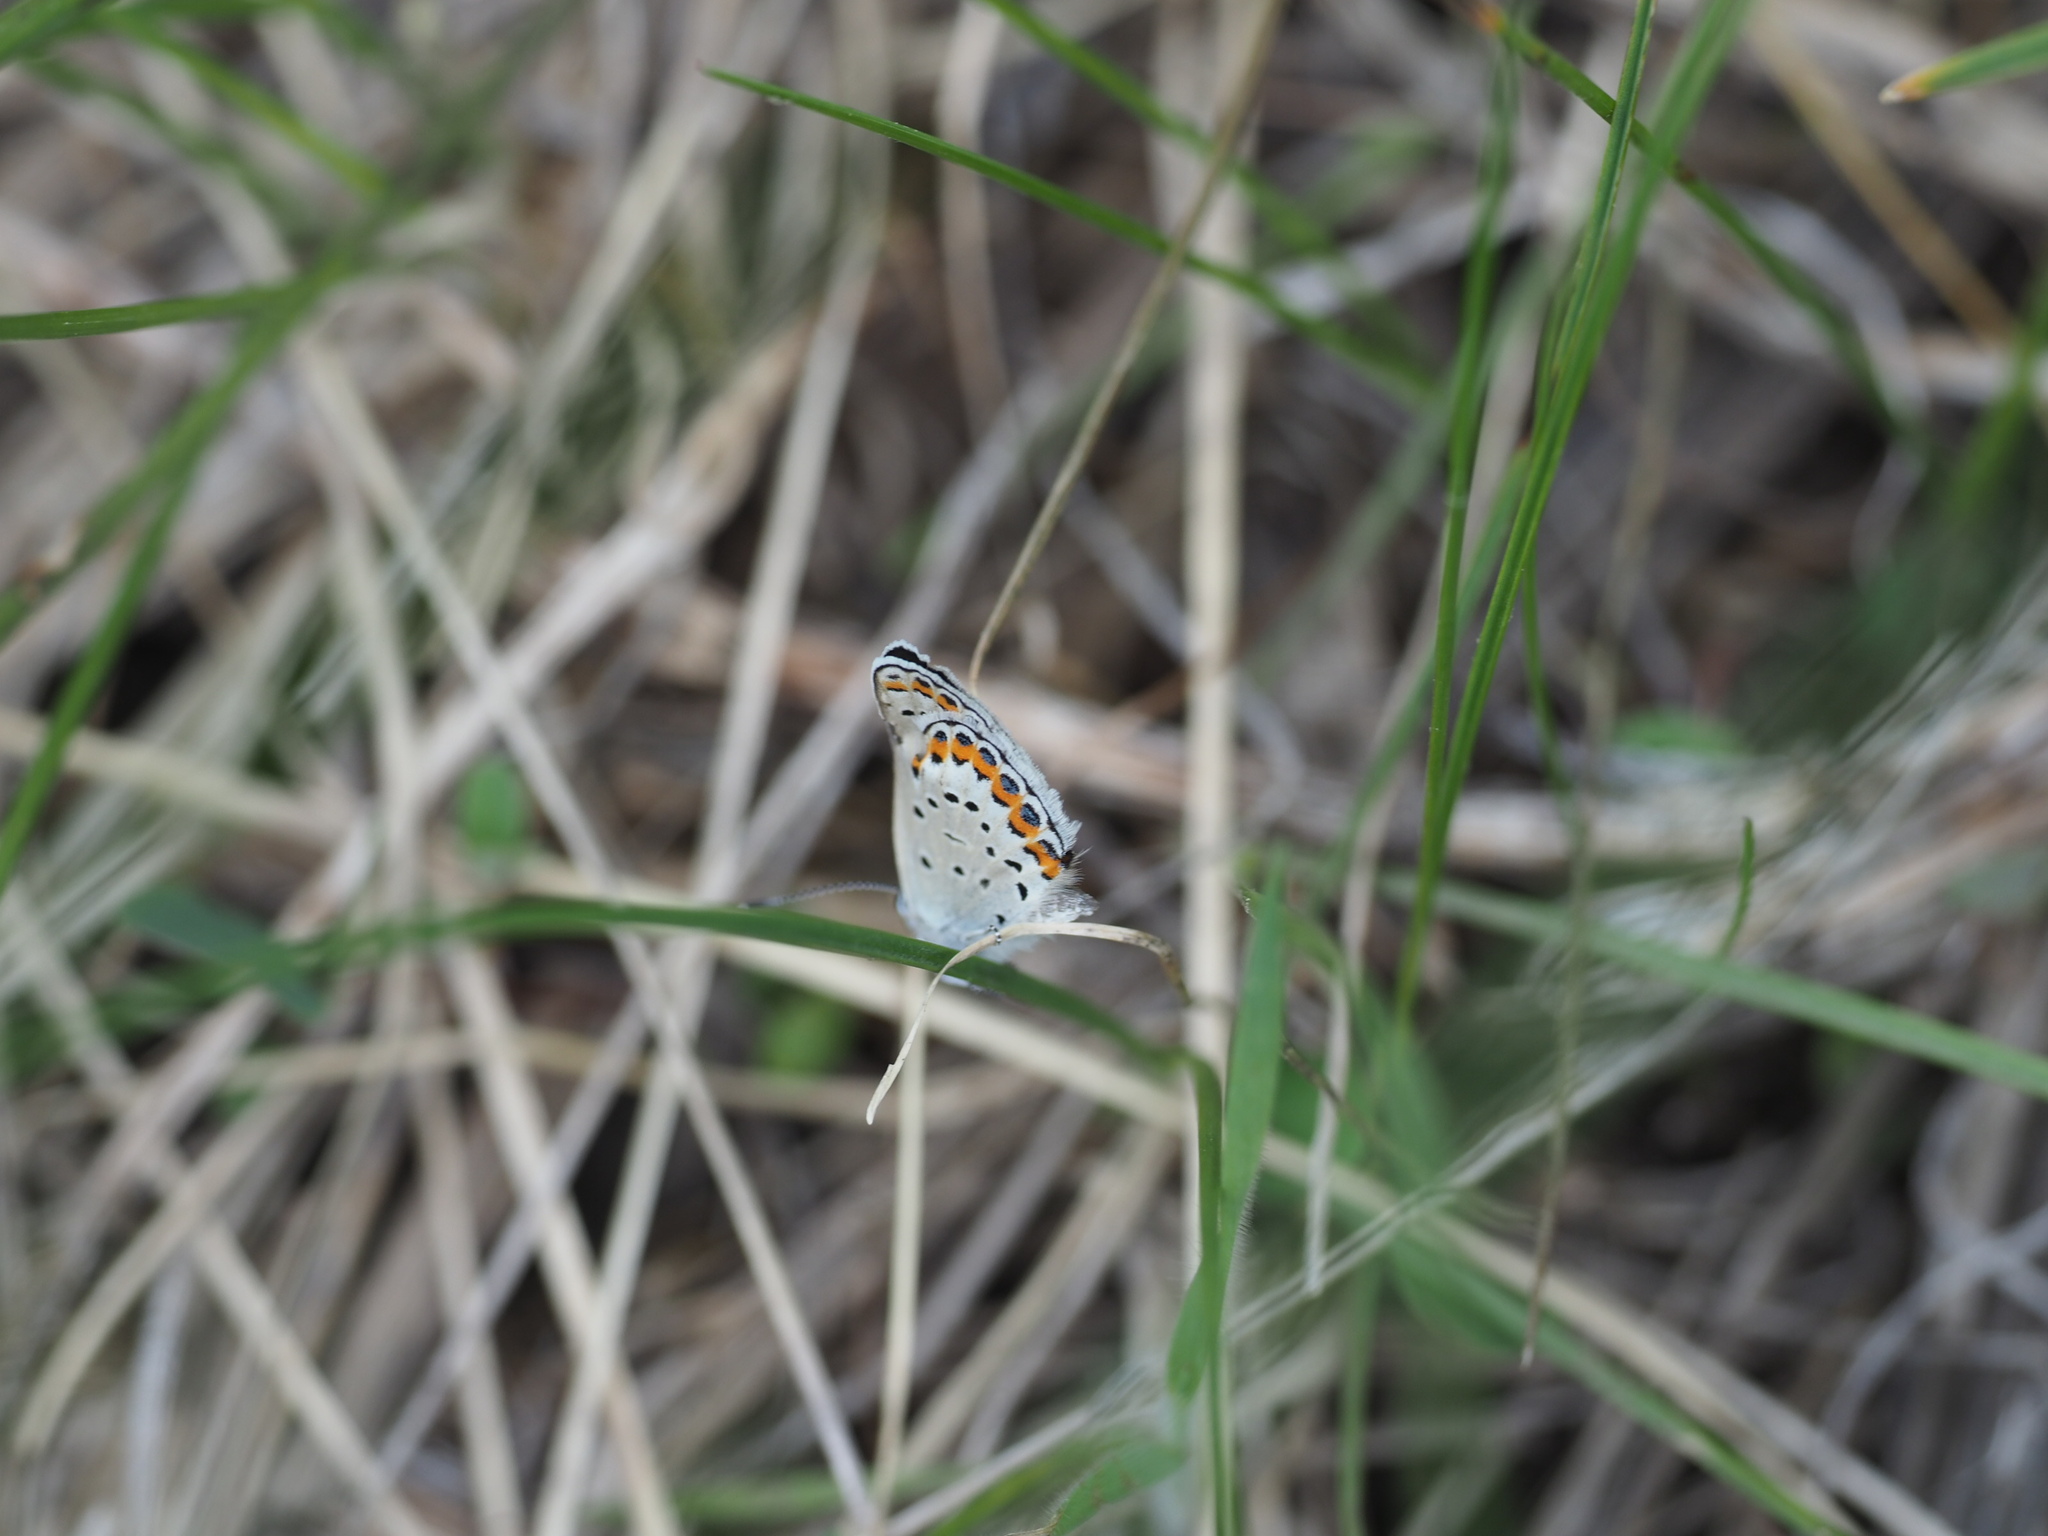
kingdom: Animalia
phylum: Arthropoda
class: Insecta
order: Lepidoptera
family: Lycaenidae
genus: Lycaeides
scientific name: Lycaeides melissa
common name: Melissa blue
